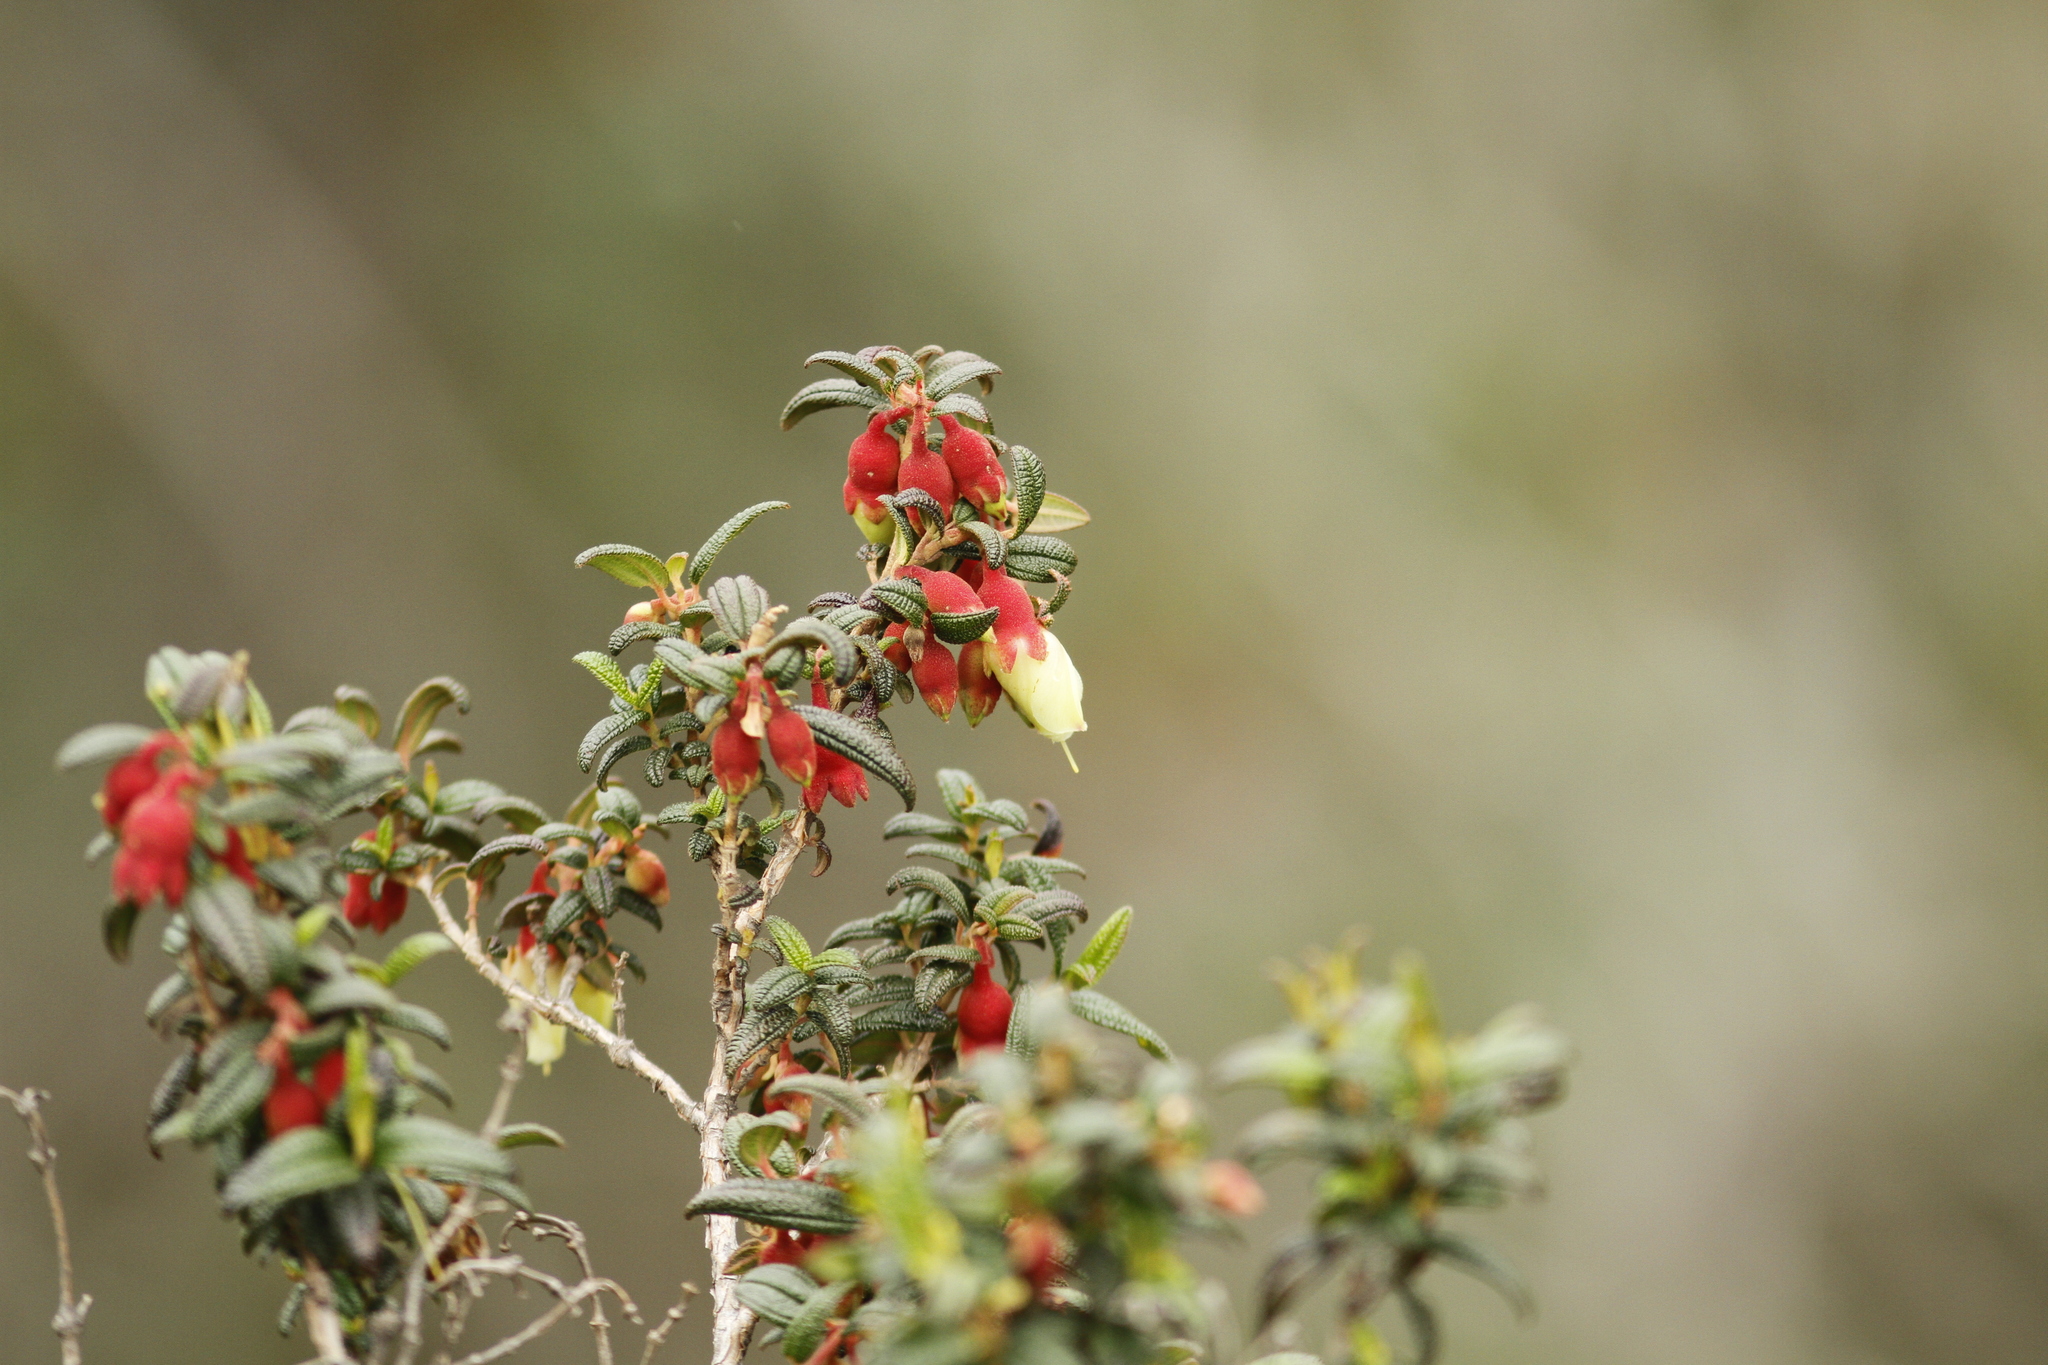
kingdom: Plantae
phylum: Tracheophyta
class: Magnoliopsida
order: Myrtales
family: Melastomataceae
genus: Brachyotum
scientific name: Brachyotum ledifolium
